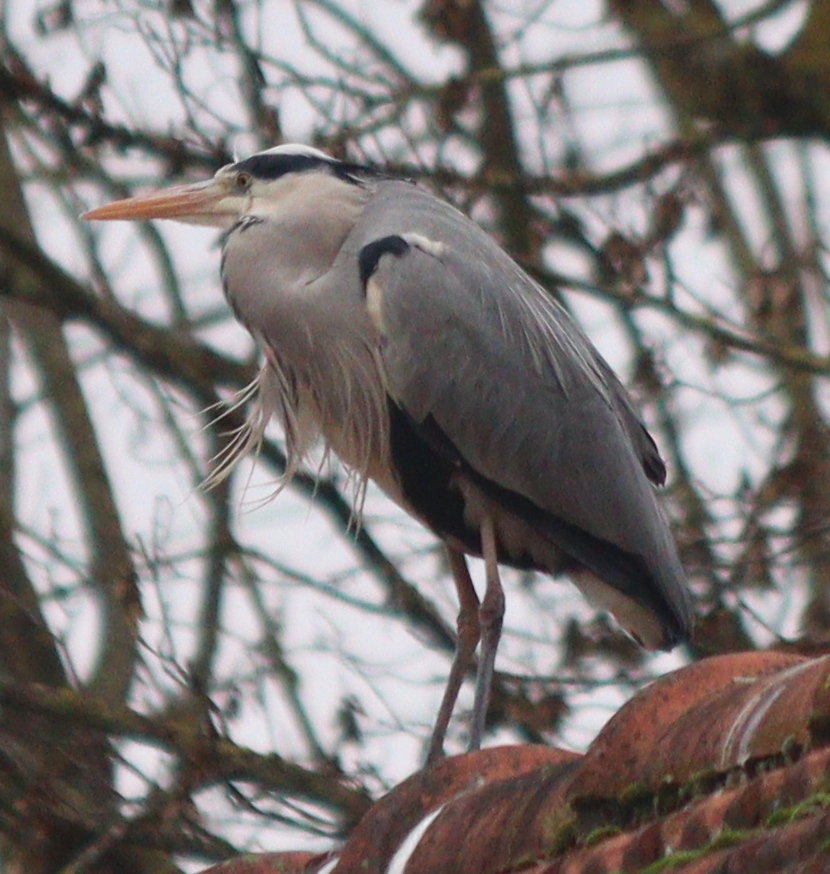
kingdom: Animalia
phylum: Chordata
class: Aves
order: Pelecaniformes
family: Ardeidae
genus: Ardea
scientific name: Ardea cinerea
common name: Grey heron
